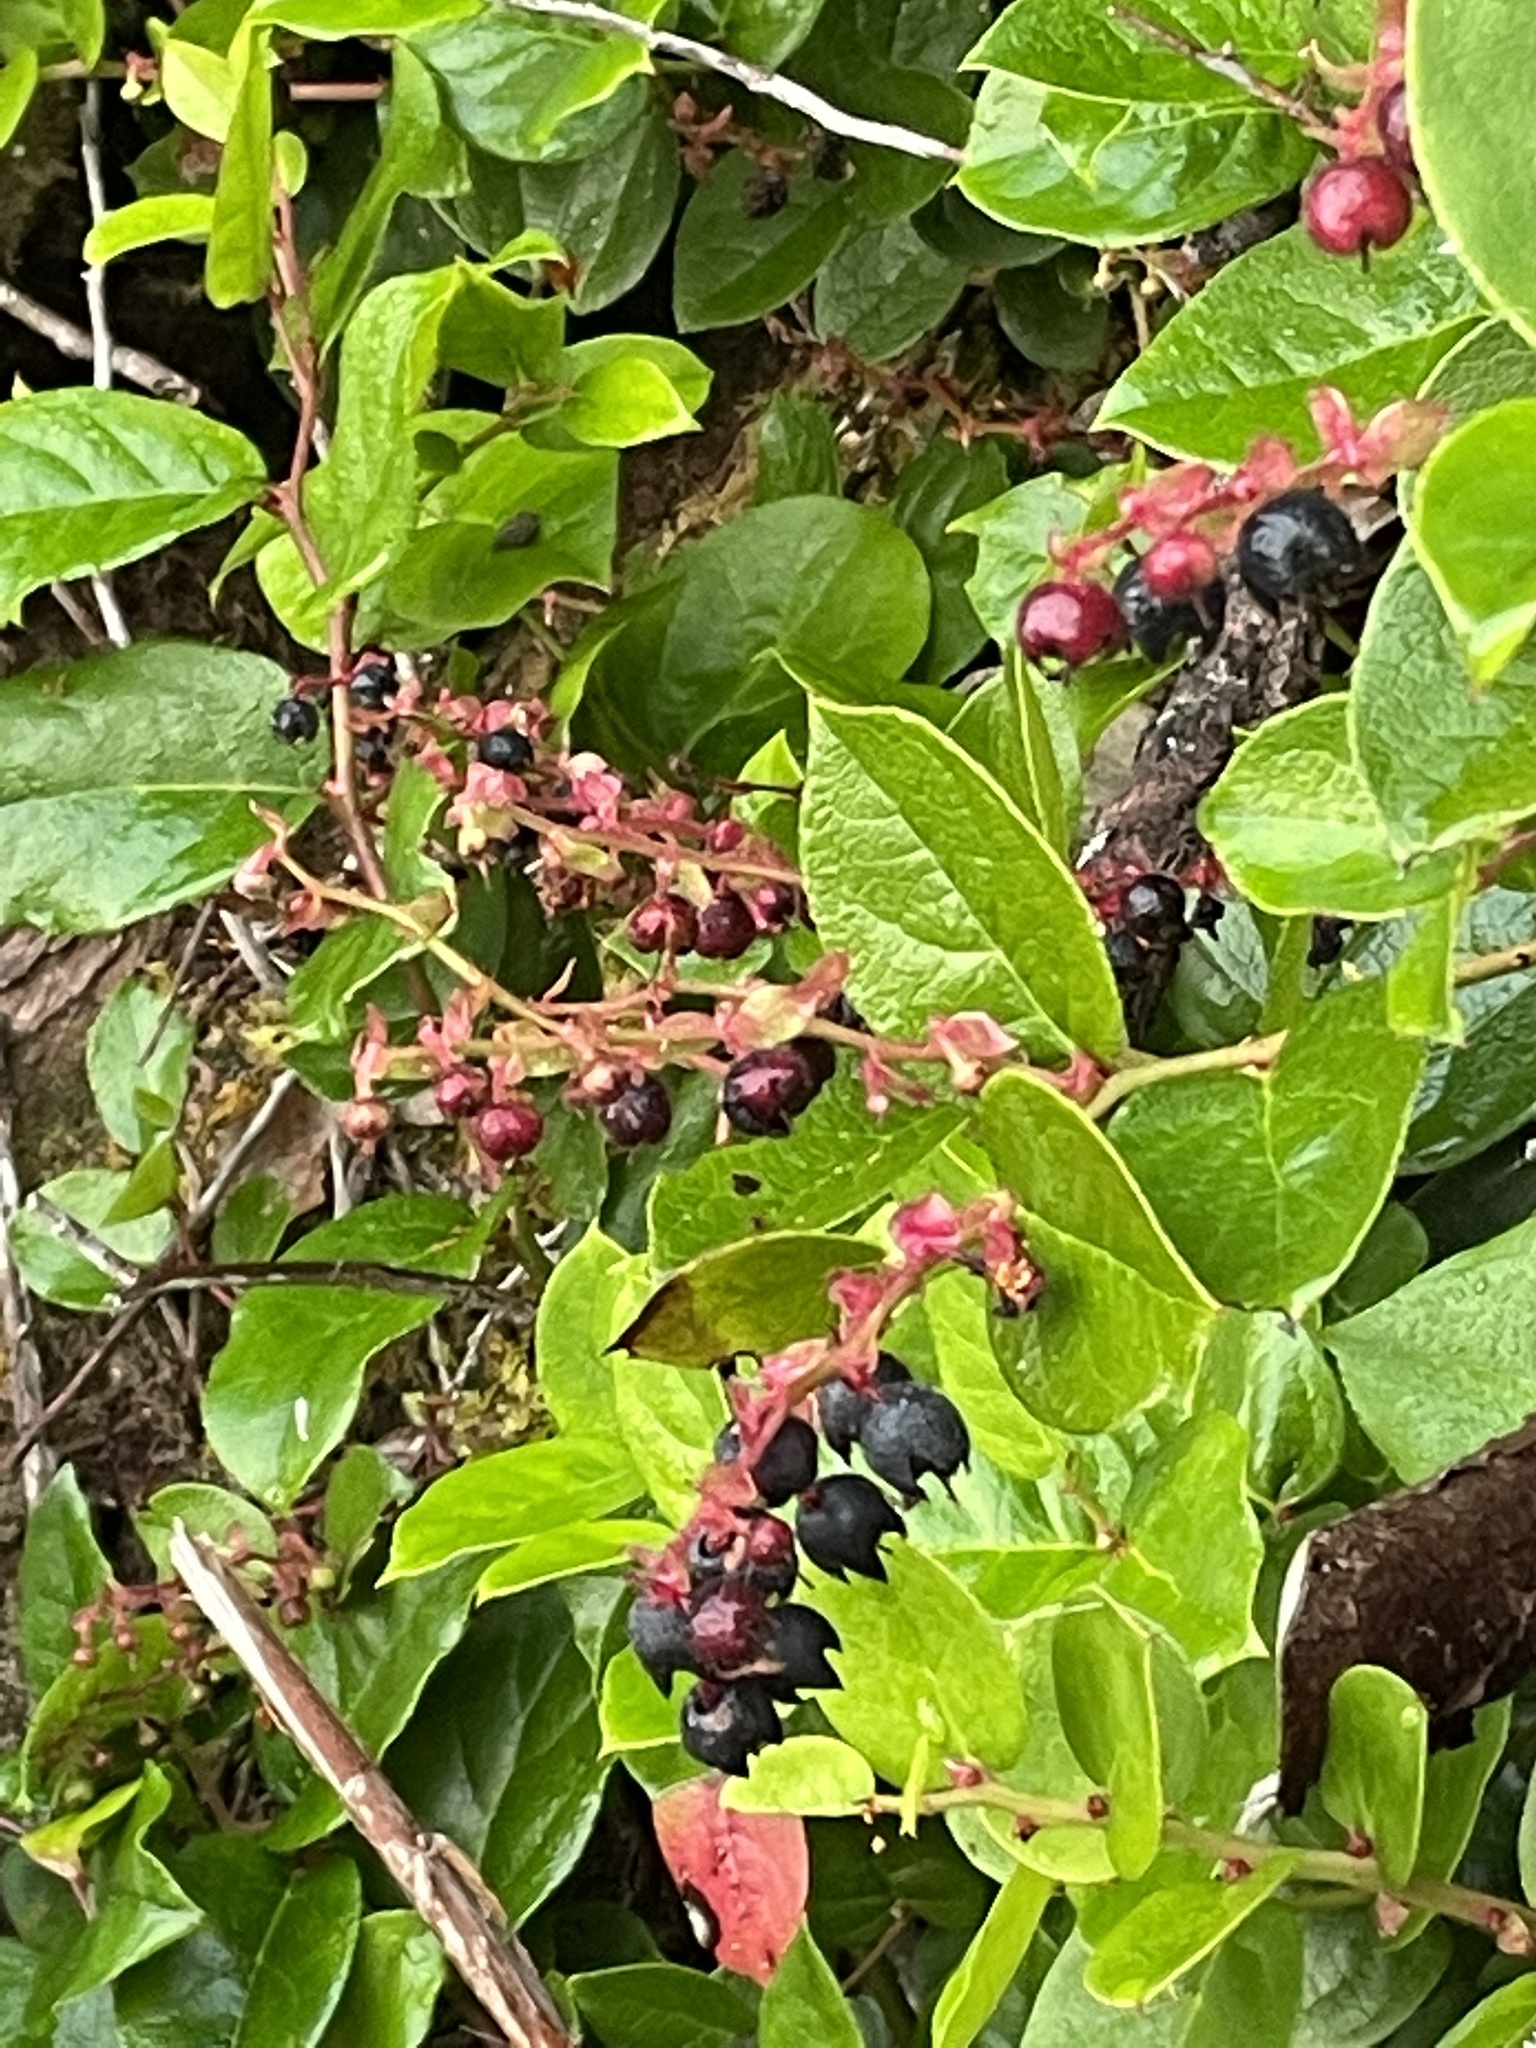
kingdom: Plantae
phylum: Tracheophyta
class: Magnoliopsida
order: Ericales
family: Ericaceae
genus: Gaultheria
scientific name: Gaultheria shallon
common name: Shallon
